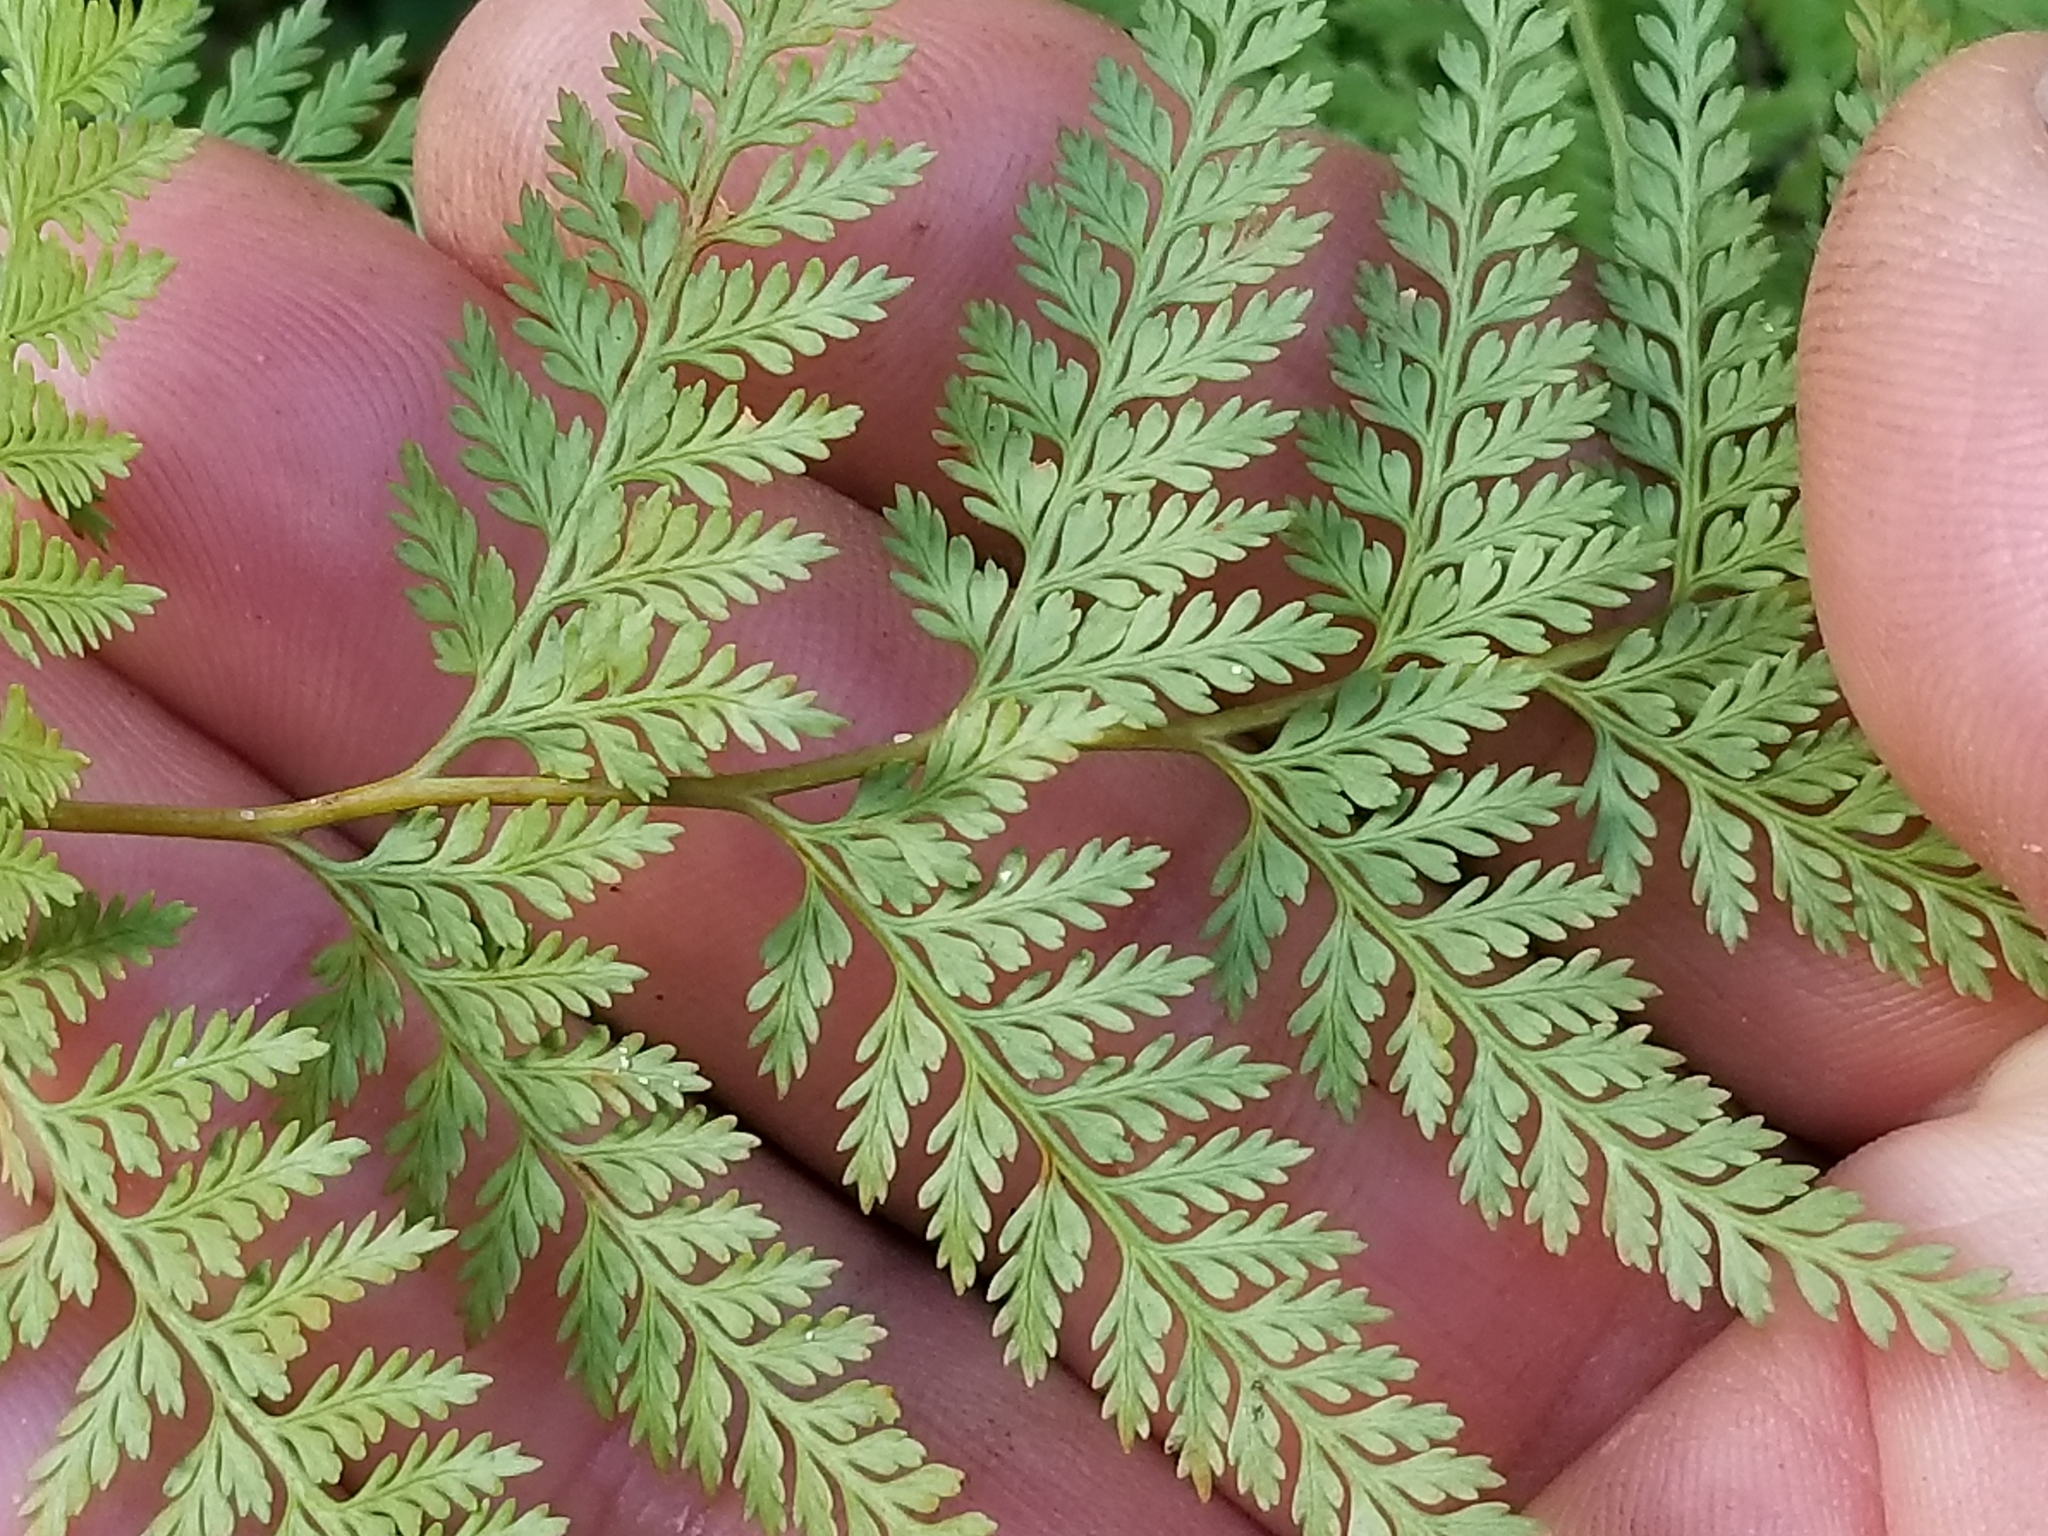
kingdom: Plantae
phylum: Tracheophyta
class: Polypodiopsida
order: Polypodiales
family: Dennstaedtiaceae
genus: Paesia
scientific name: Paesia scaberula
